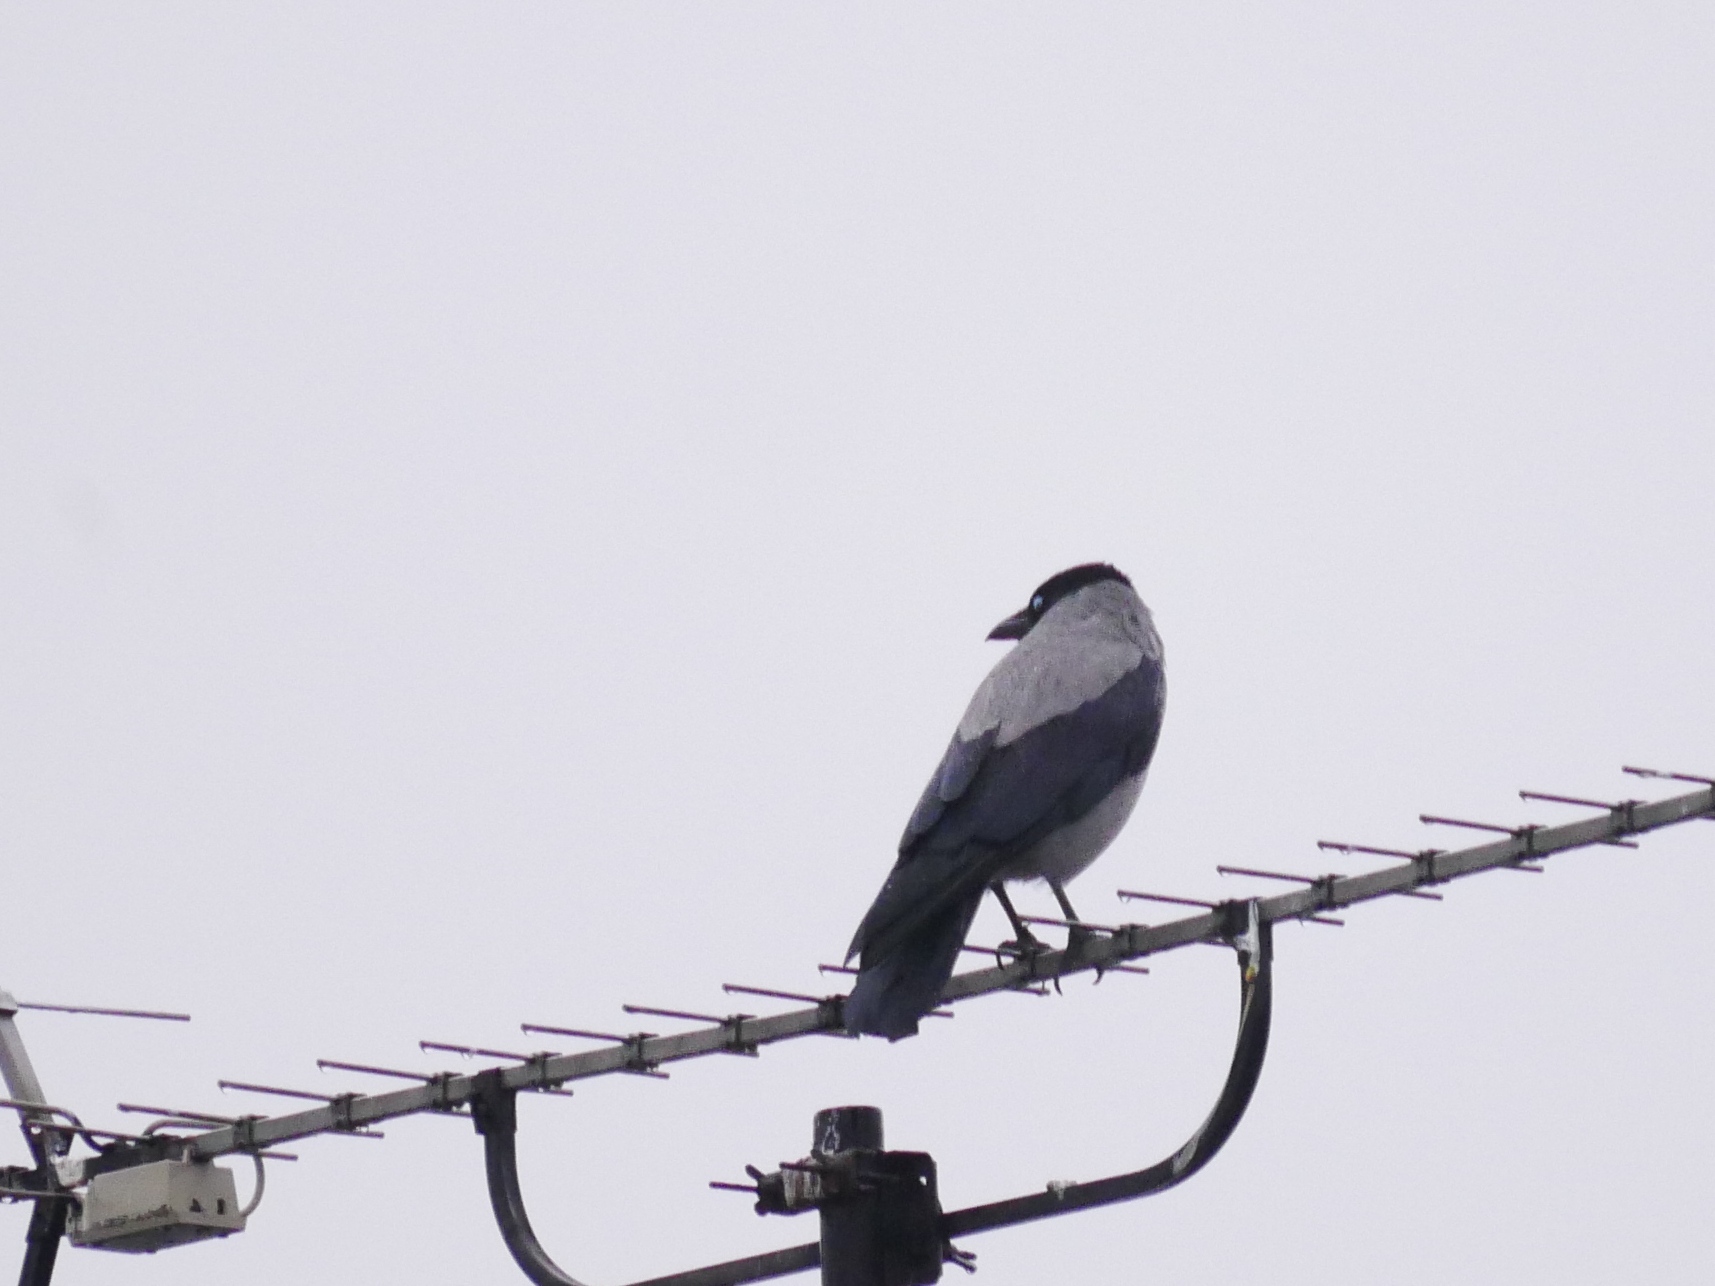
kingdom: Animalia
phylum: Chordata
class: Aves
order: Passeriformes
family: Corvidae
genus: Corvus
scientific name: Corvus cornix
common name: Hooded crow
